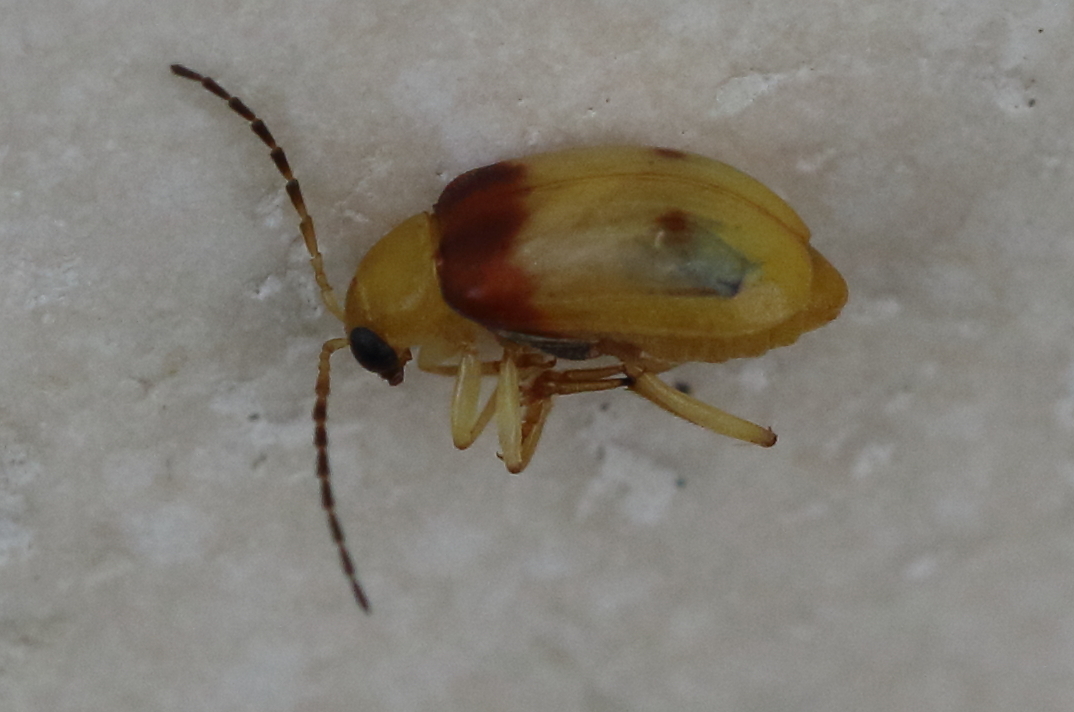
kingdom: Animalia
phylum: Arthropoda
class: Insecta
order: Coleoptera
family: Chrysomelidae
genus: Monolepta
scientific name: Monolepta
